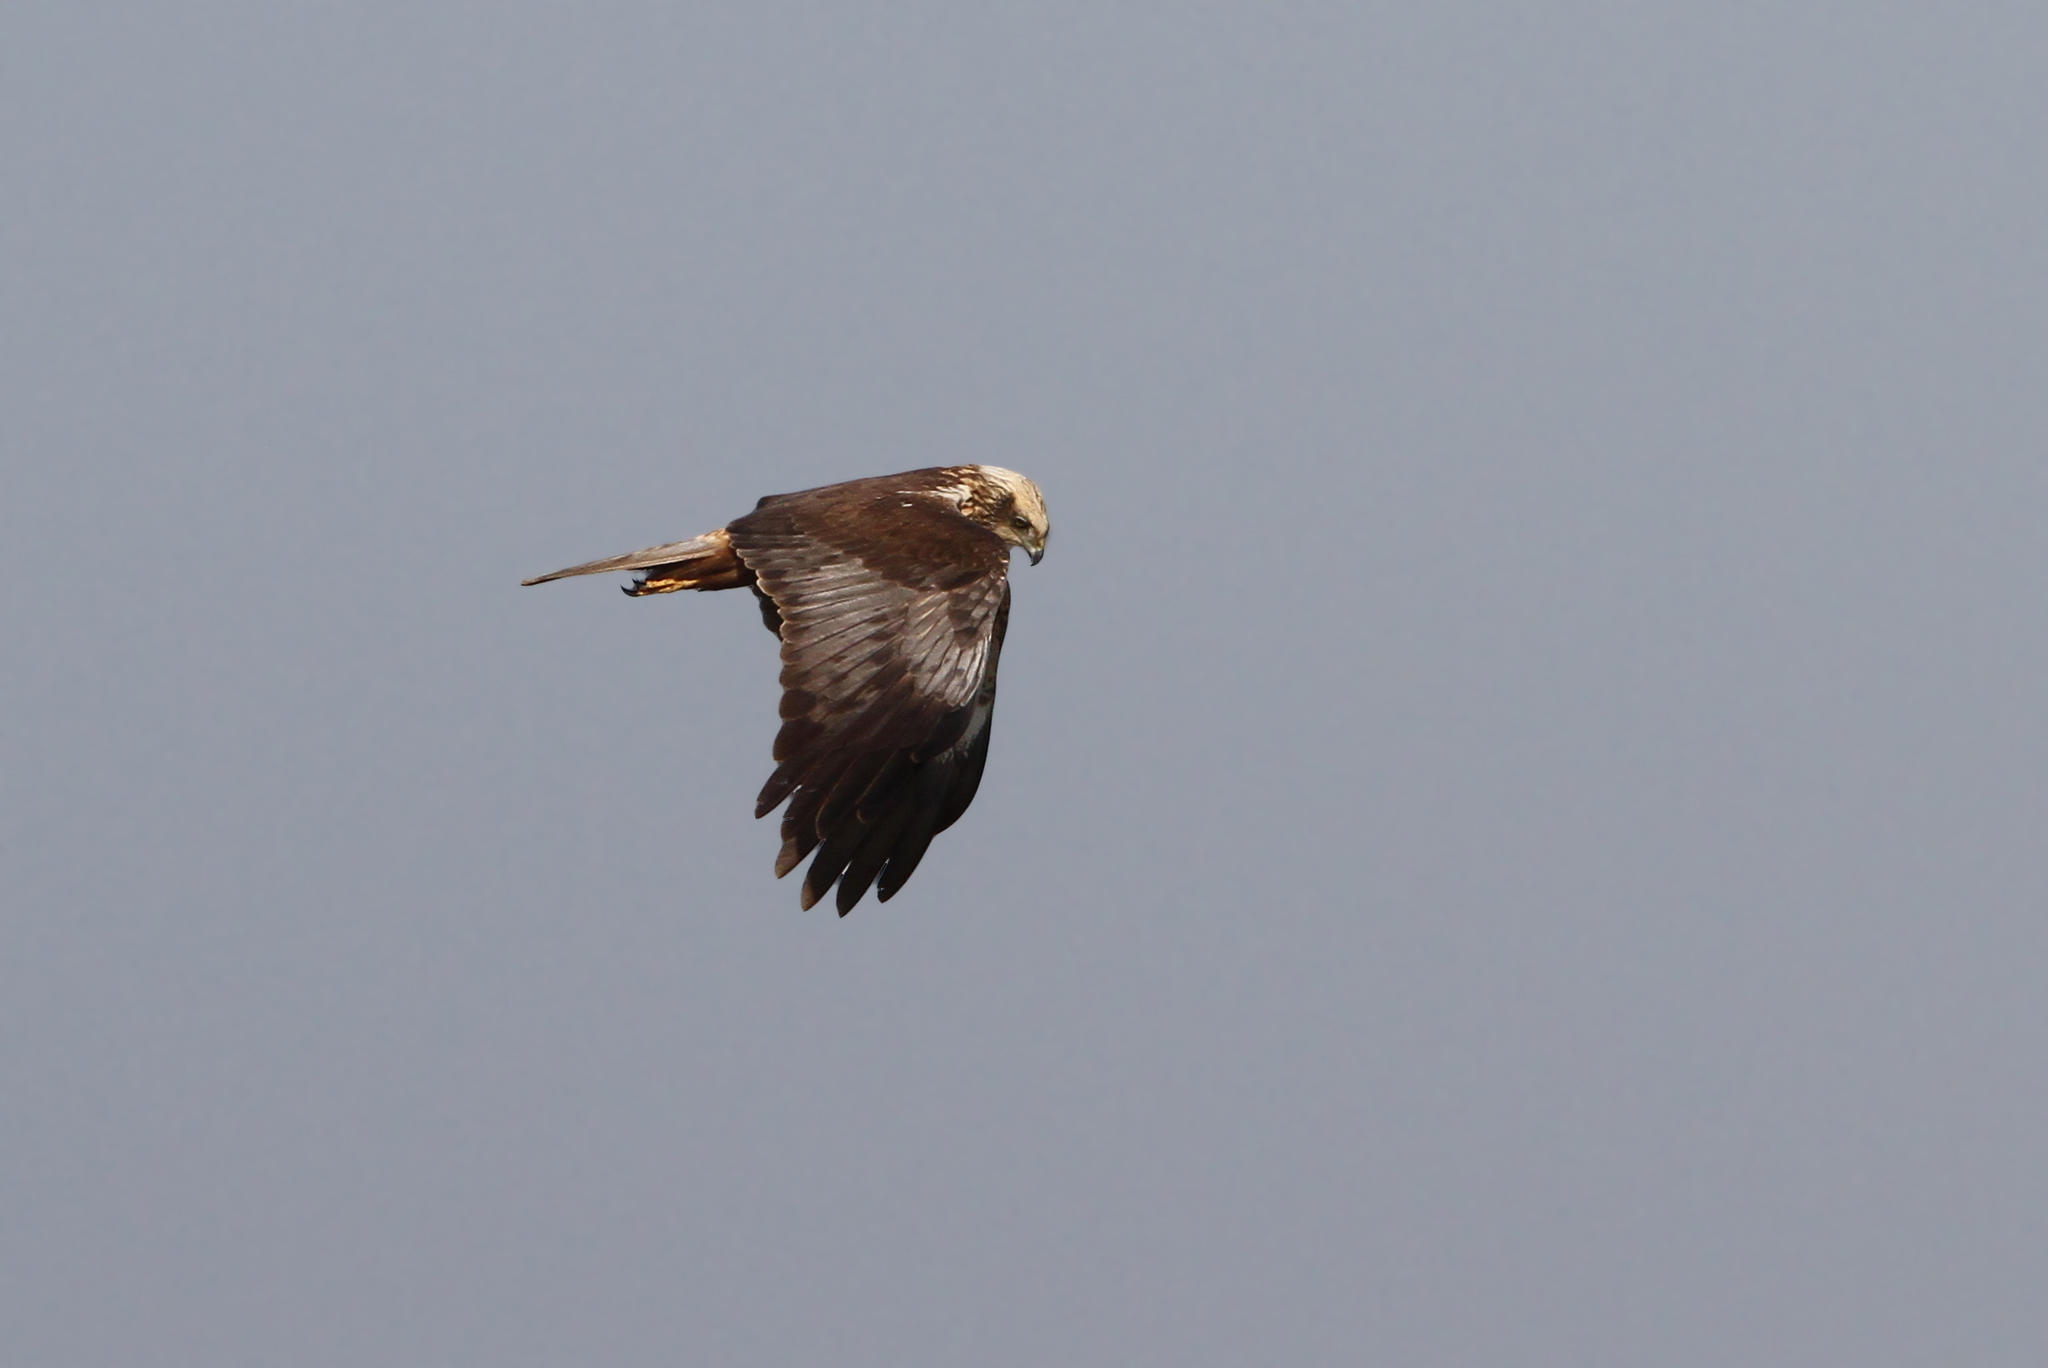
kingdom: Animalia
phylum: Chordata
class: Aves
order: Accipitriformes
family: Accipitridae
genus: Circus
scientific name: Circus aeruginosus
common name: Western marsh harrier
